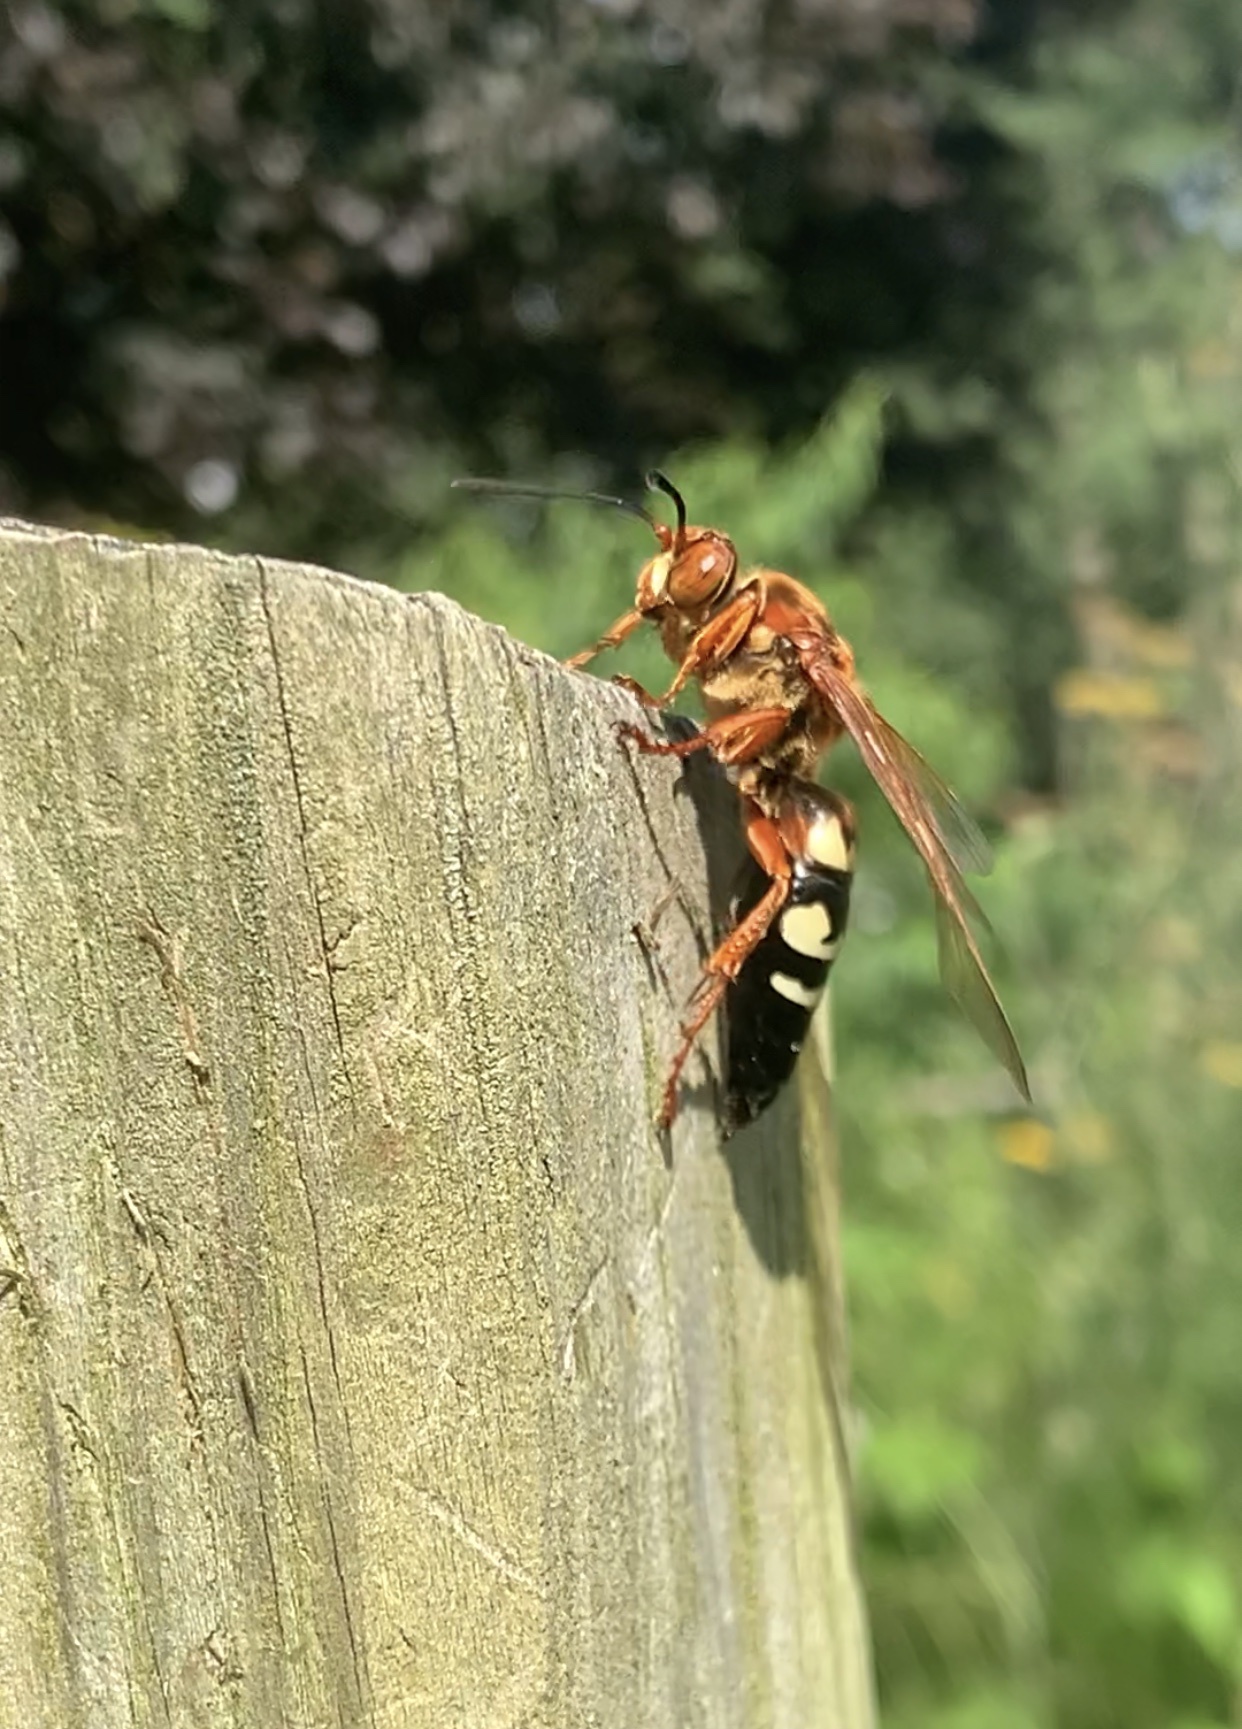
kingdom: Animalia
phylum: Arthropoda
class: Insecta
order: Hymenoptera
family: Crabronidae
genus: Sphecius
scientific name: Sphecius speciosus
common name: Cicada killer
